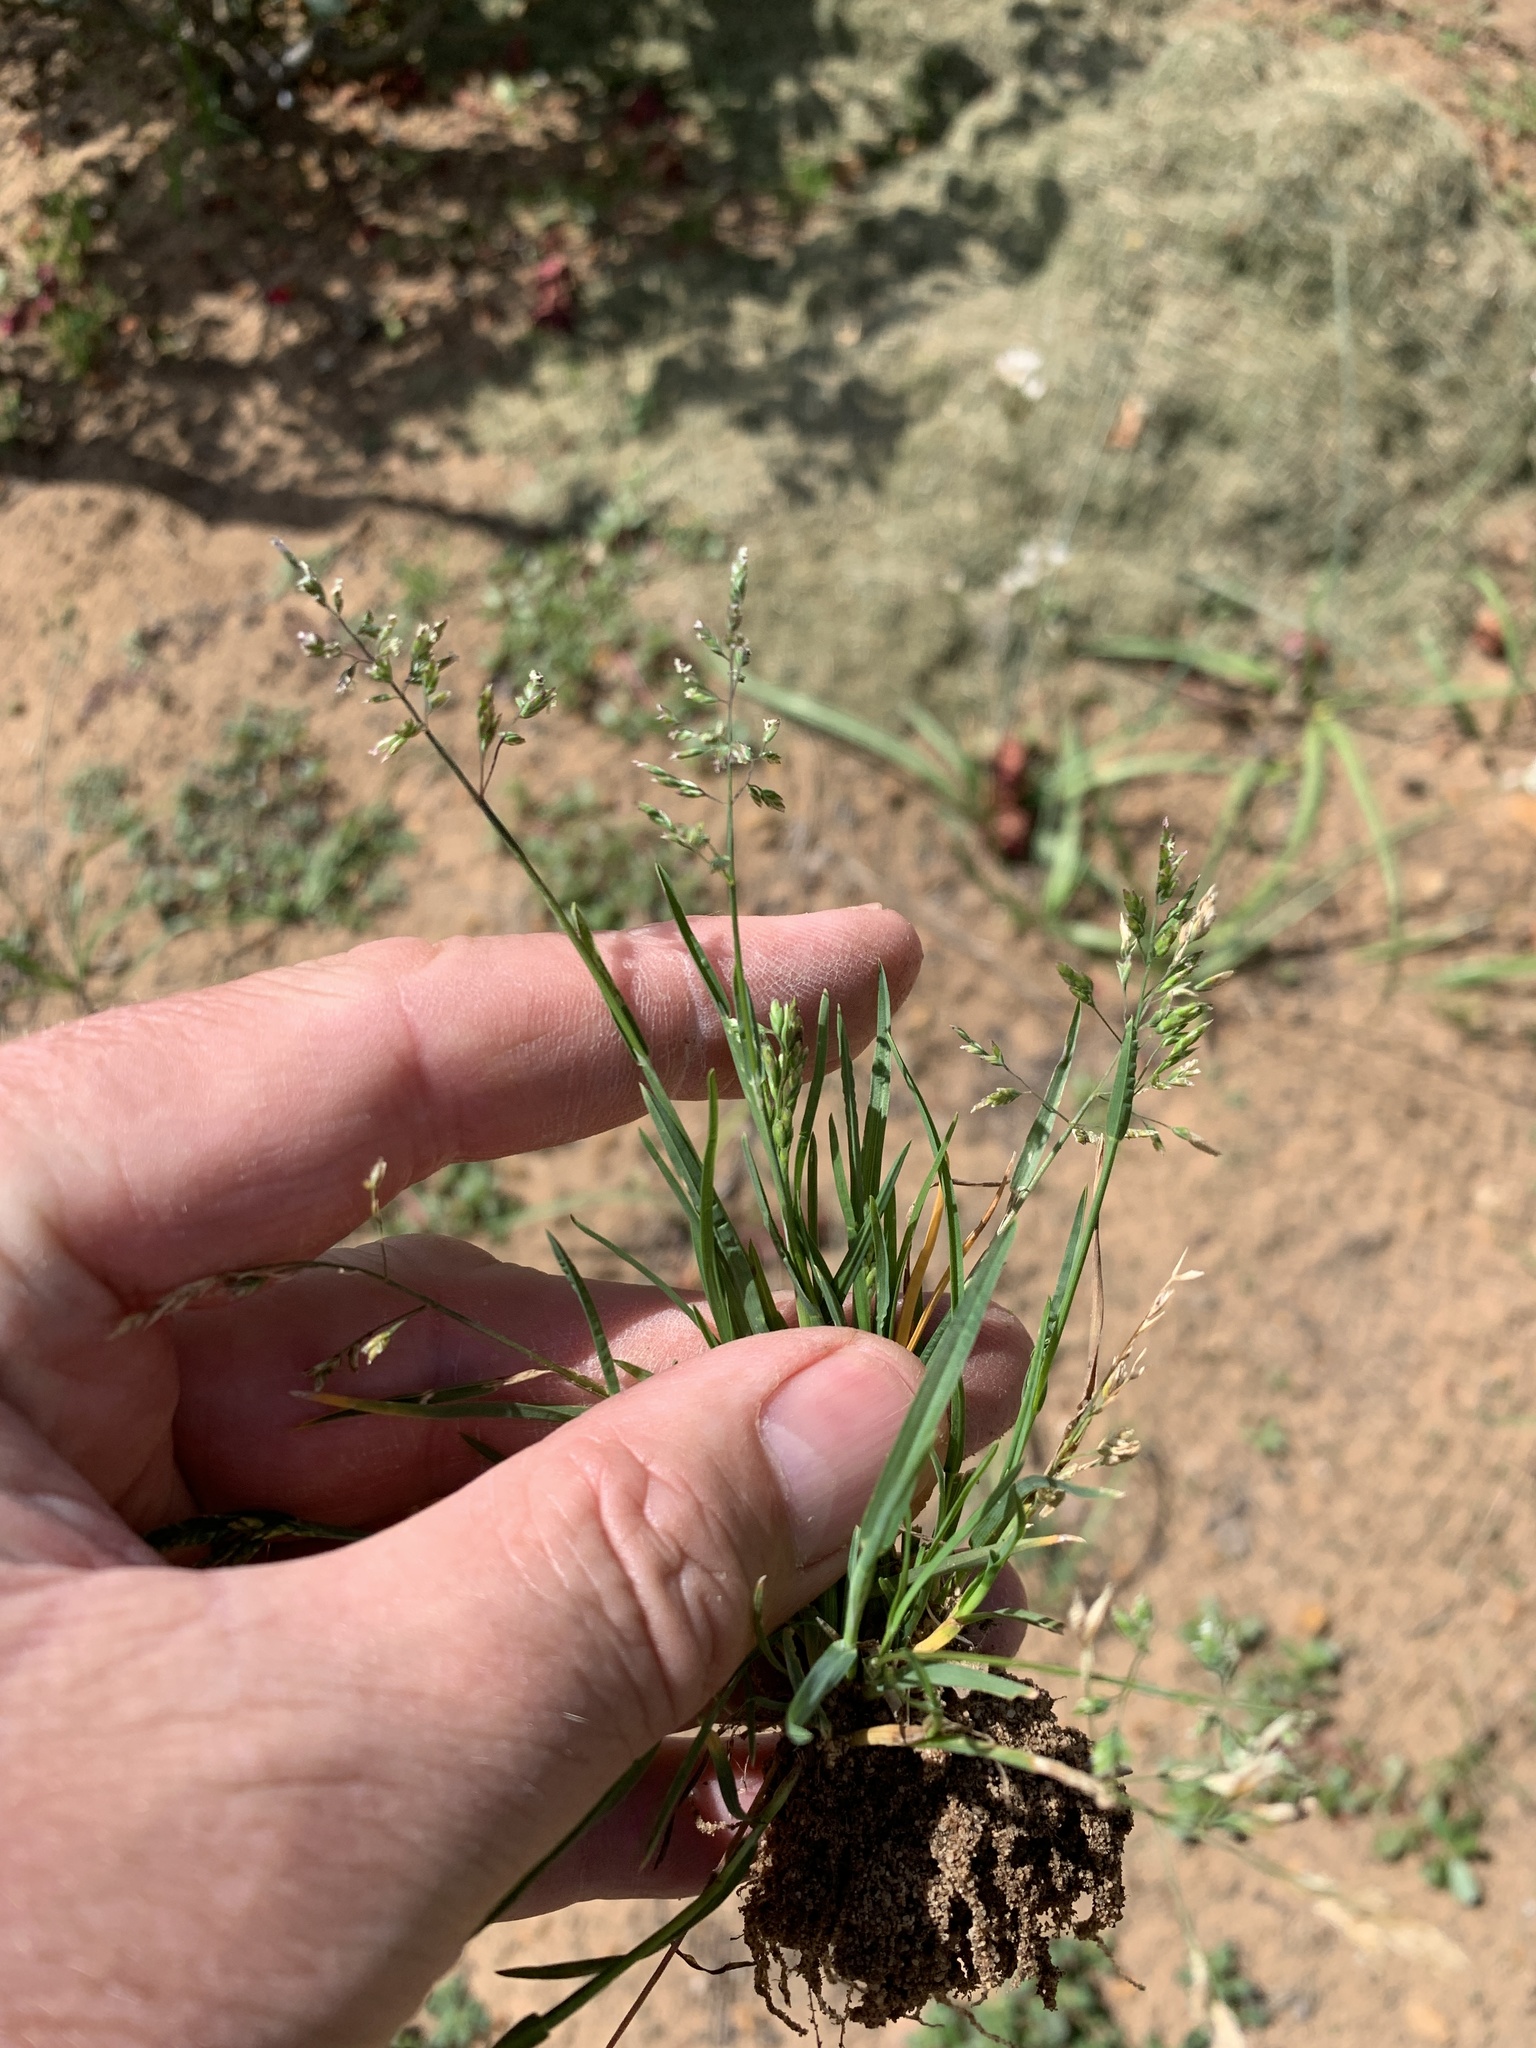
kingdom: Plantae
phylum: Tracheophyta
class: Liliopsida
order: Poales
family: Poaceae
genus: Poa
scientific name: Poa annua
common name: Annual bluegrass
